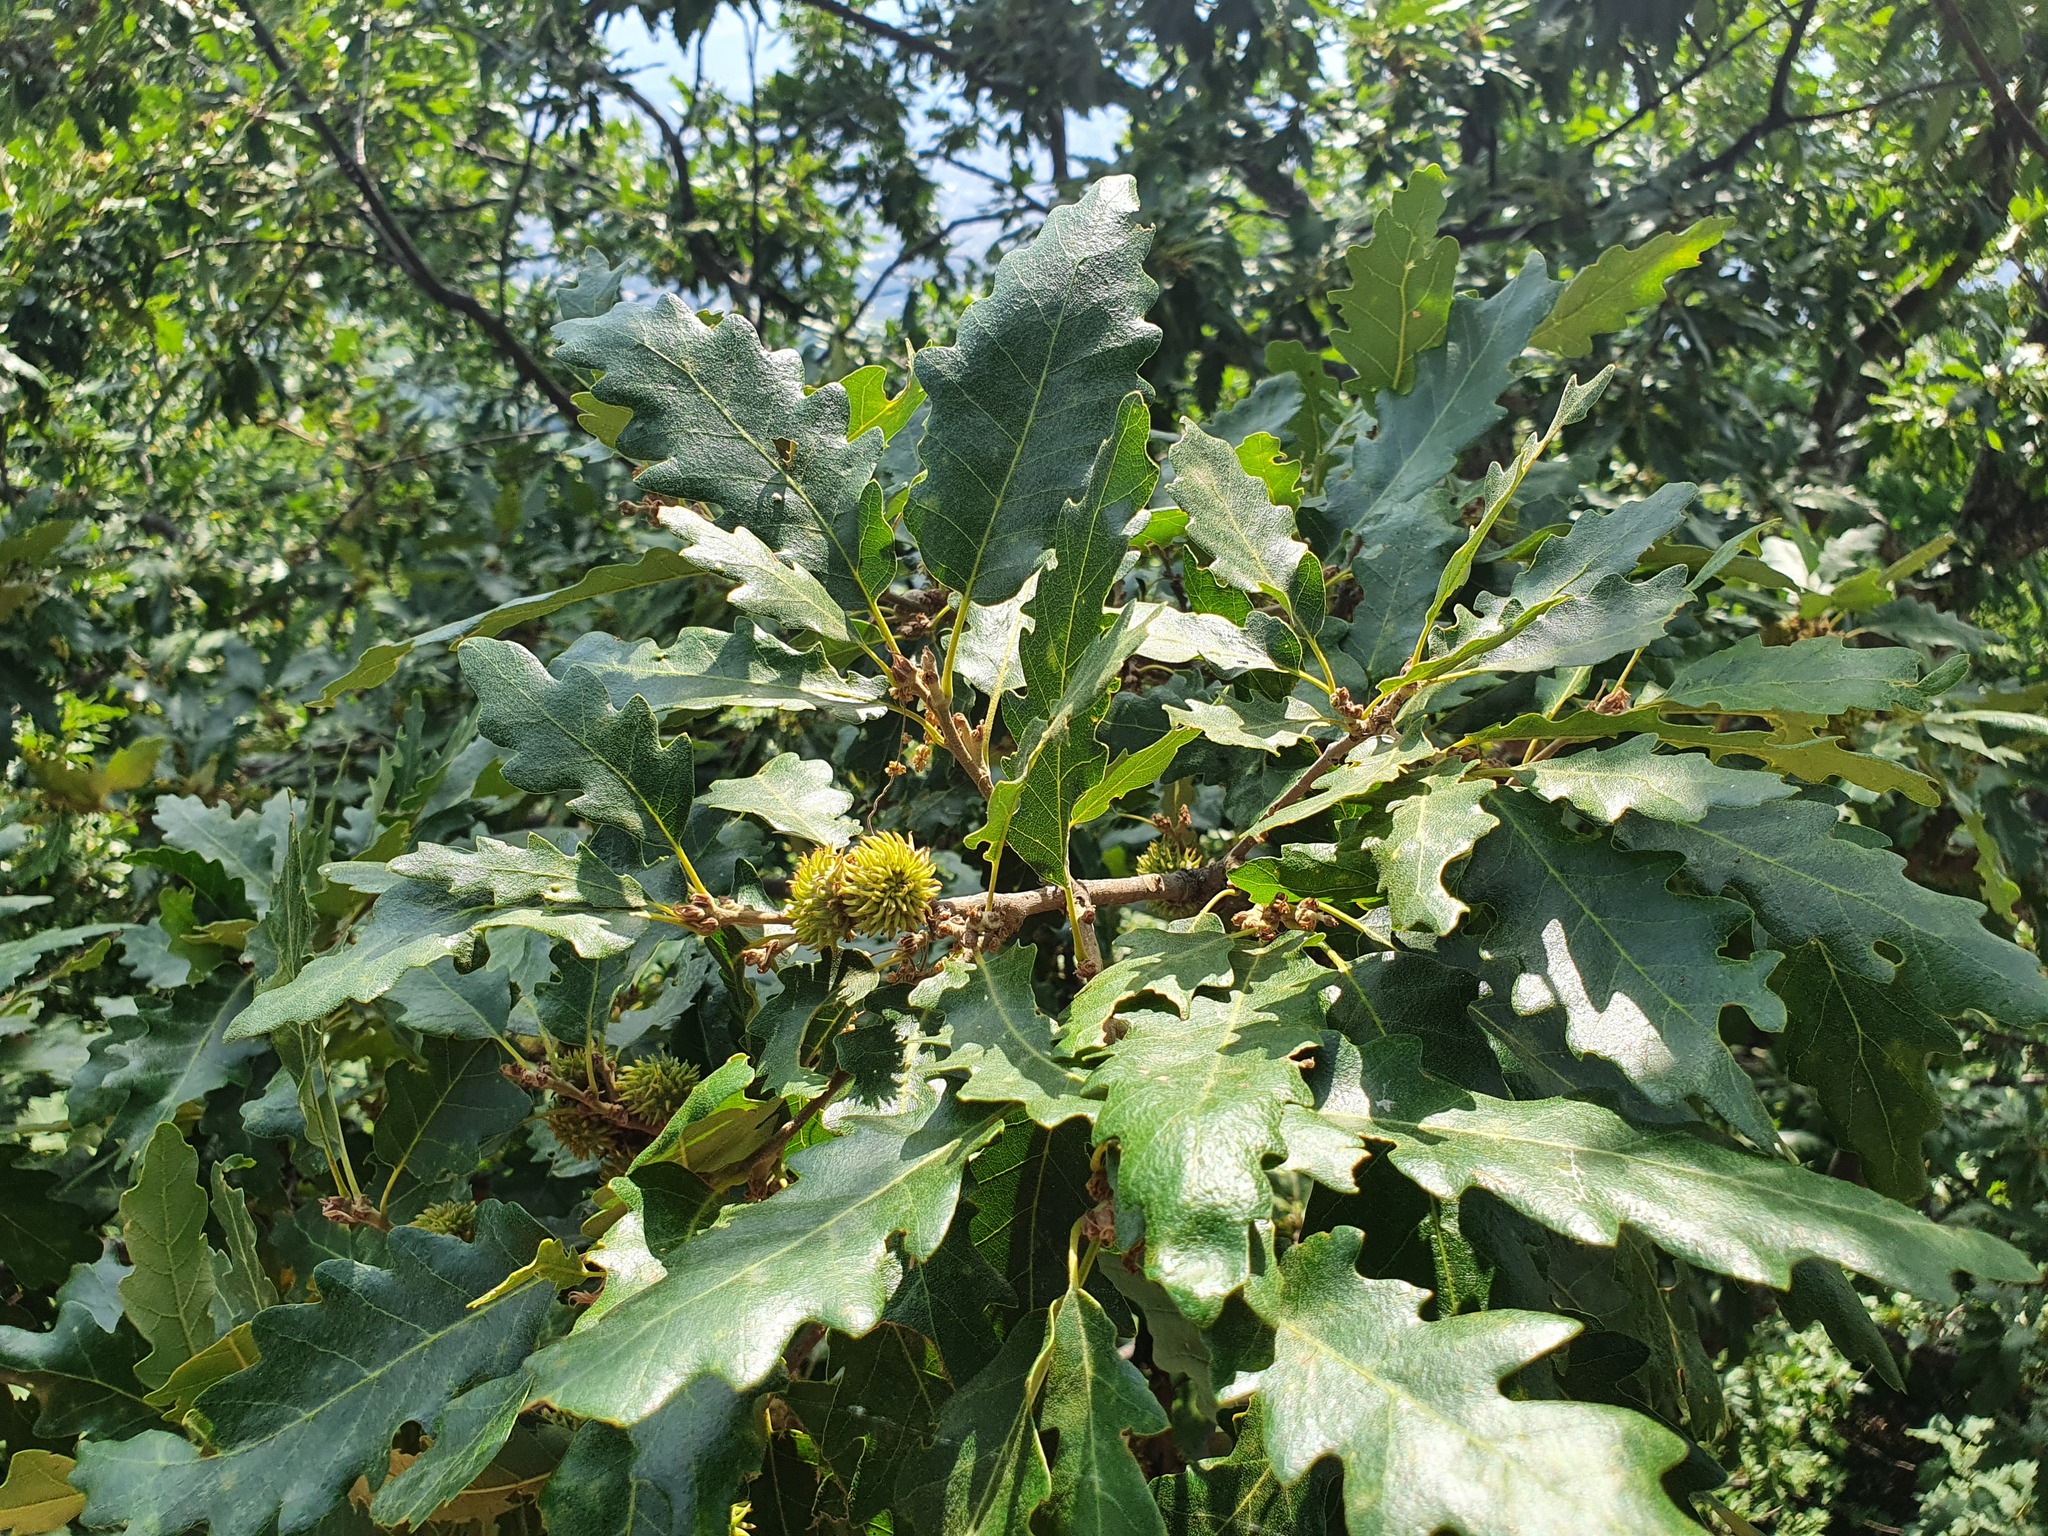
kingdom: Plantae
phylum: Tracheophyta
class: Magnoliopsida
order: Fagales
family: Fagaceae
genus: Quercus
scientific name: Quercus cerris
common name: Turkey oak
